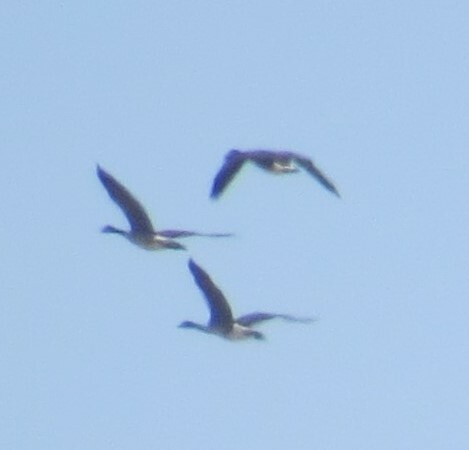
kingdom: Animalia
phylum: Chordata
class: Aves
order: Anseriformes
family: Anatidae
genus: Branta
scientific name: Branta canadensis
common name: Canada goose
